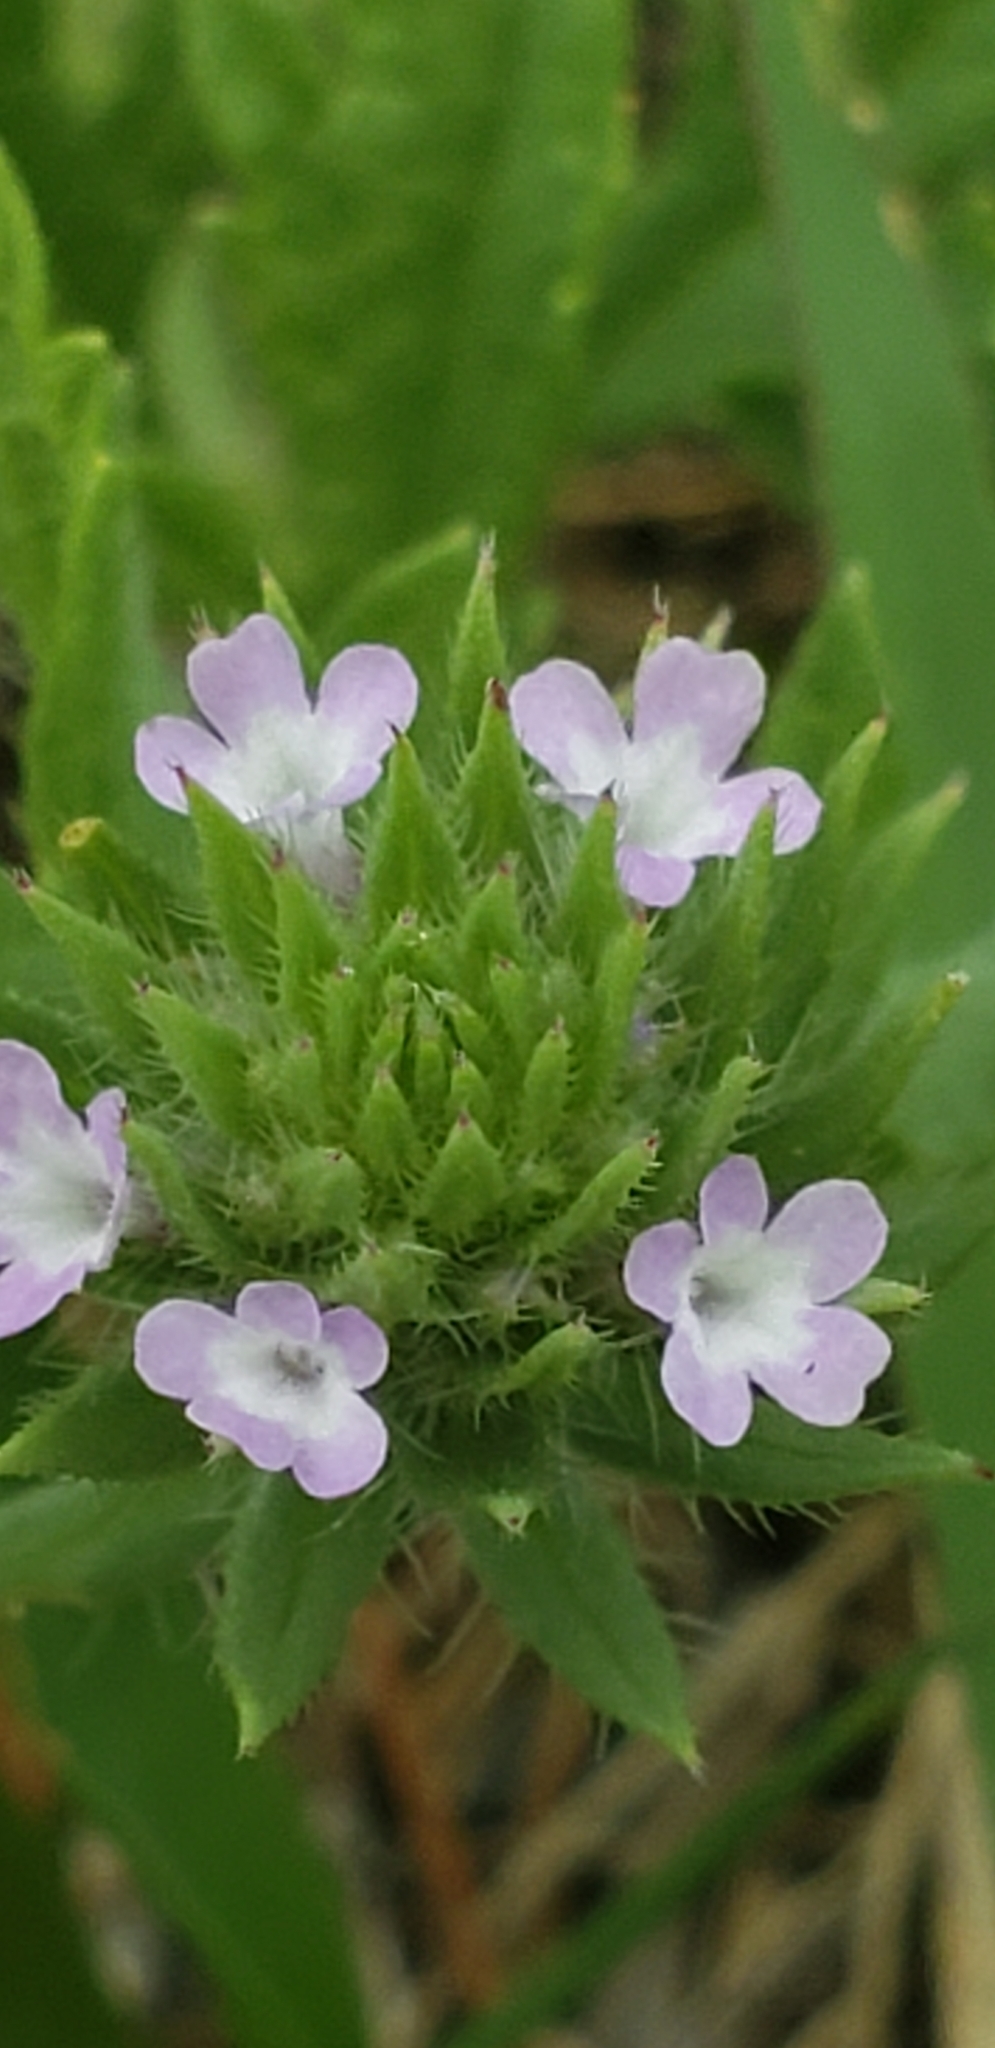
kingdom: Plantae
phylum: Tracheophyta
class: Magnoliopsida
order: Lamiales
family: Verbenaceae
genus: Verbena
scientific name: Verbena bracteata
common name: Bracted vervain
